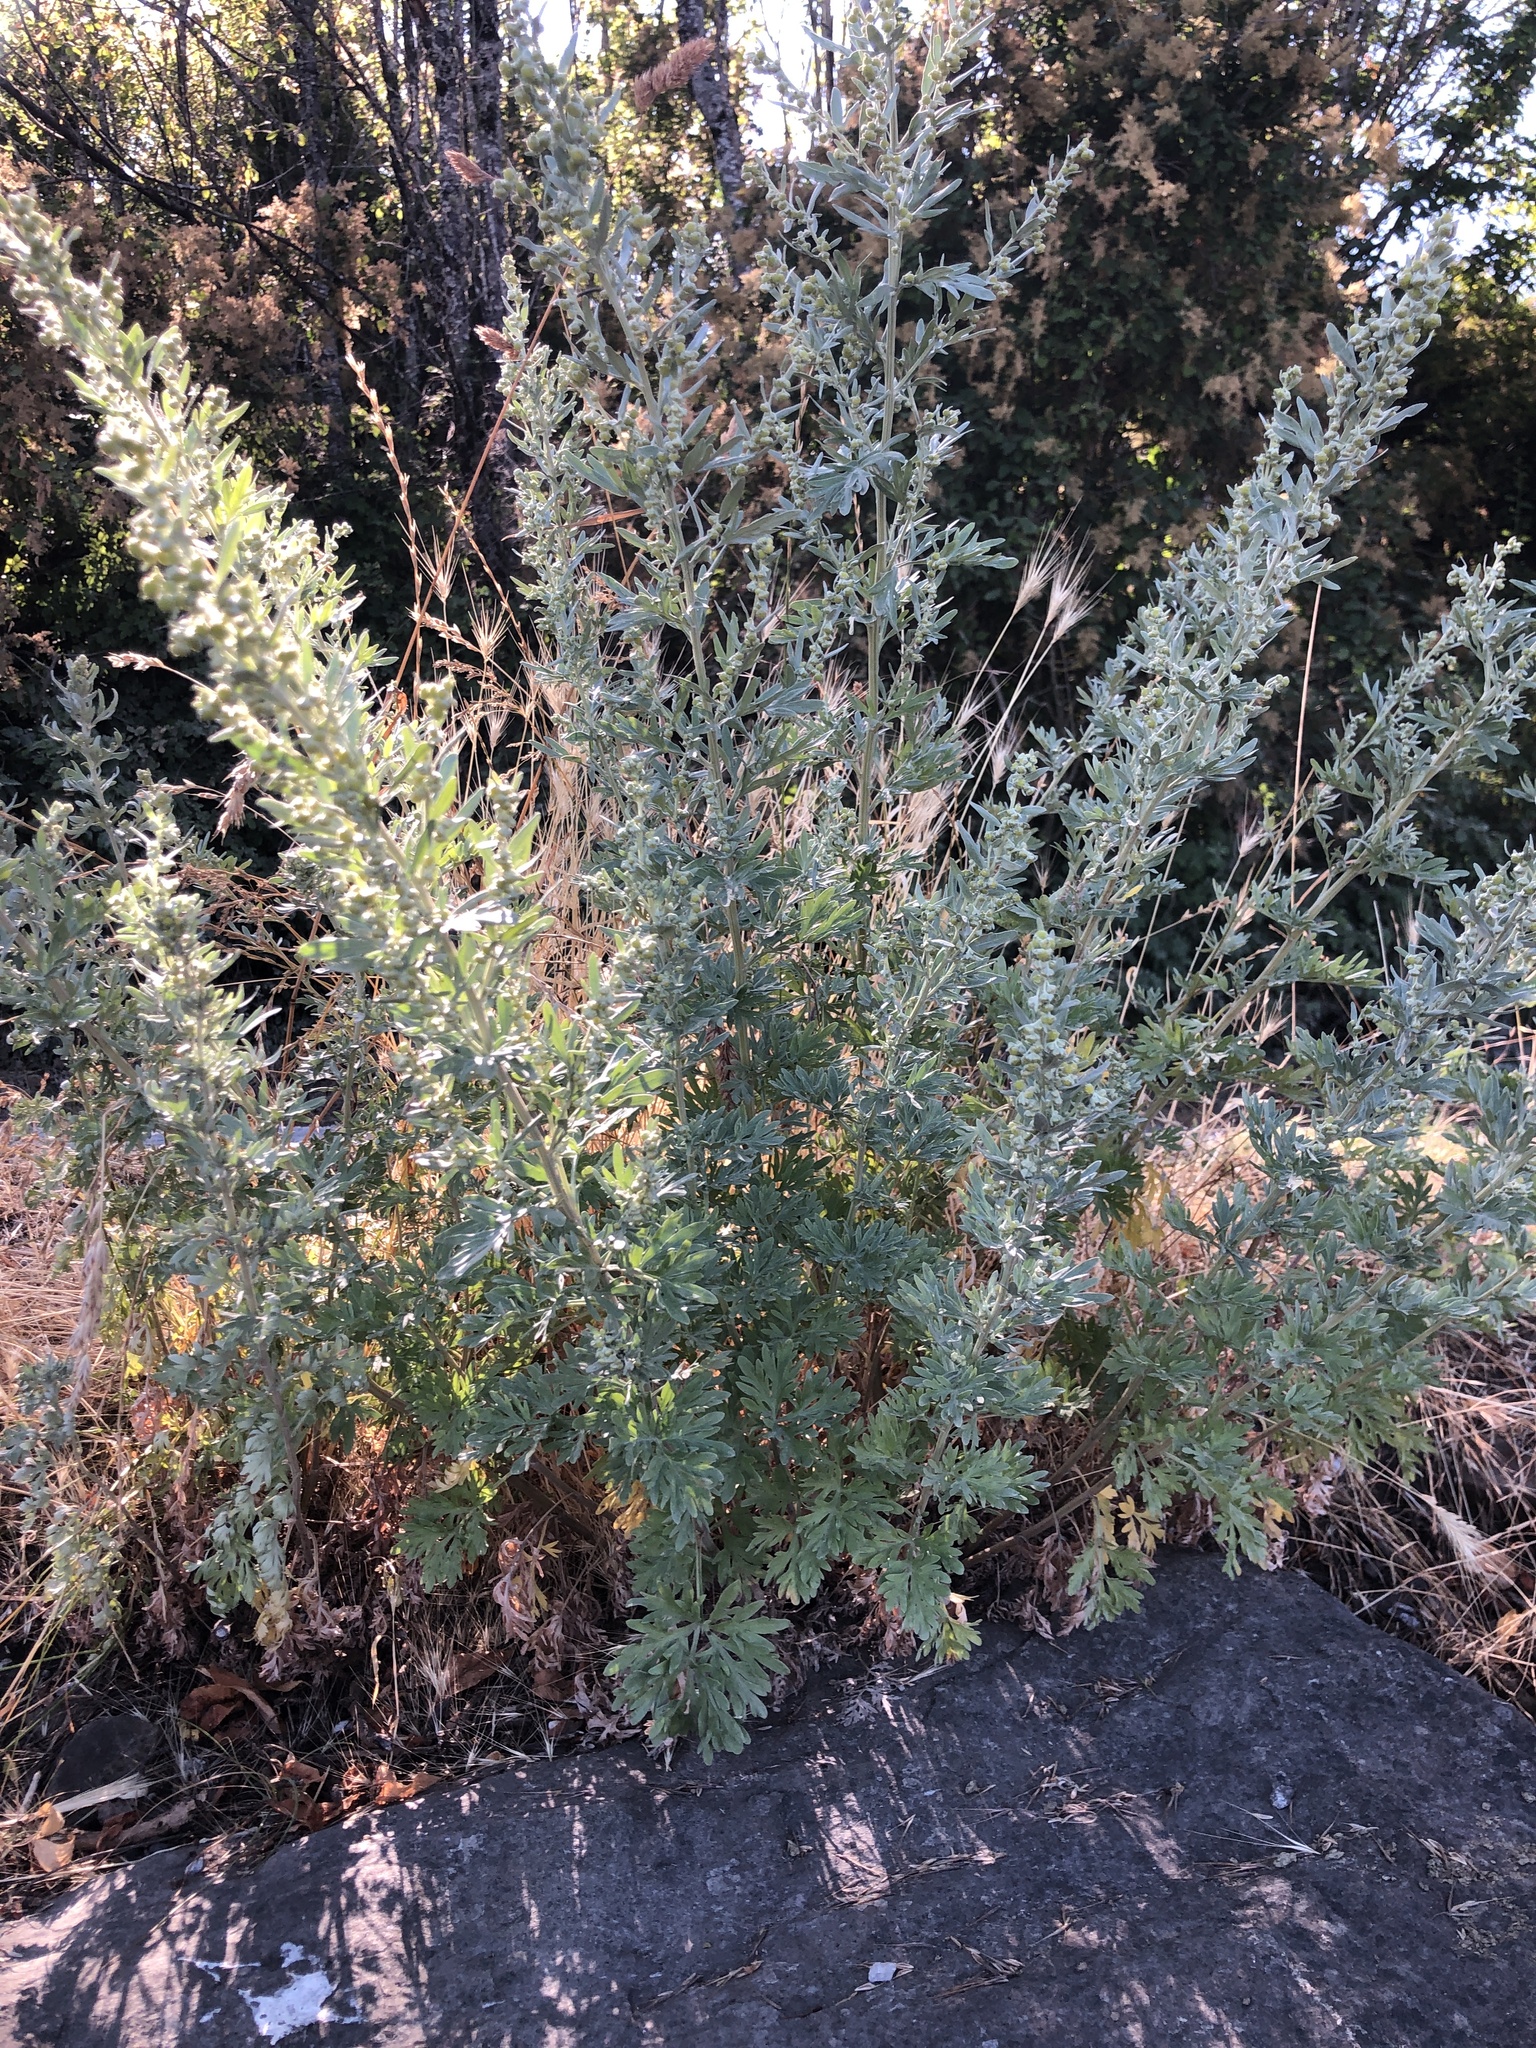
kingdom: Plantae
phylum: Tracheophyta
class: Magnoliopsida
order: Asterales
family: Asteraceae
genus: Artemisia
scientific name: Artemisia absinthium
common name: Wormwood
